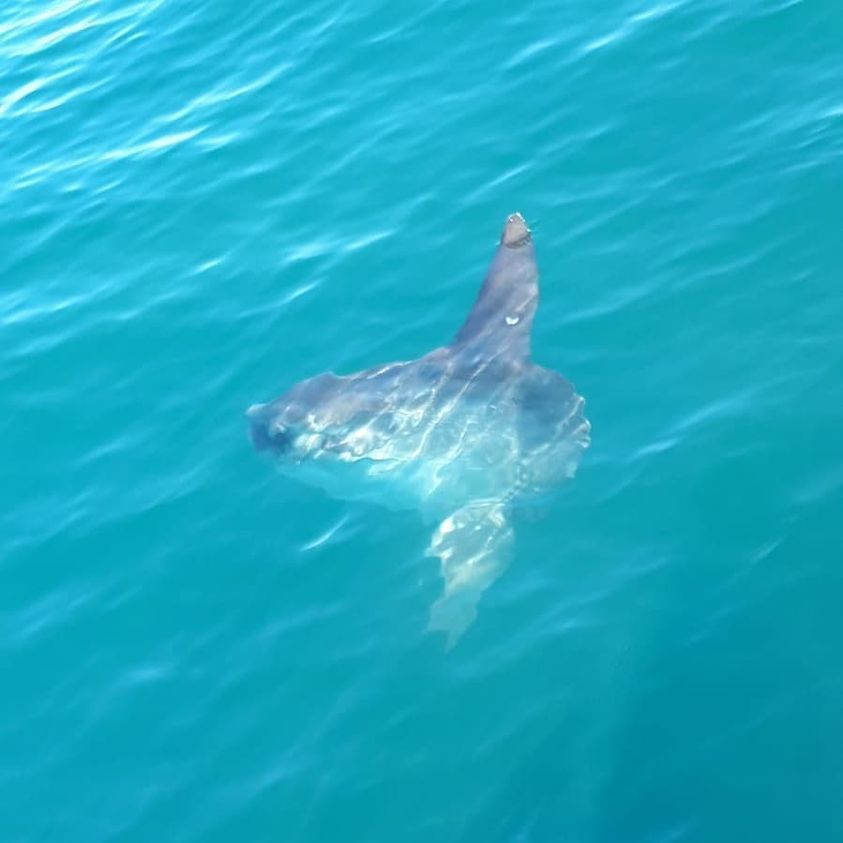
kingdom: Animalia
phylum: Chordata
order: Tetraodontiformes
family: Molidae
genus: Mola
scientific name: Mola mola
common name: Ocean sunfish
